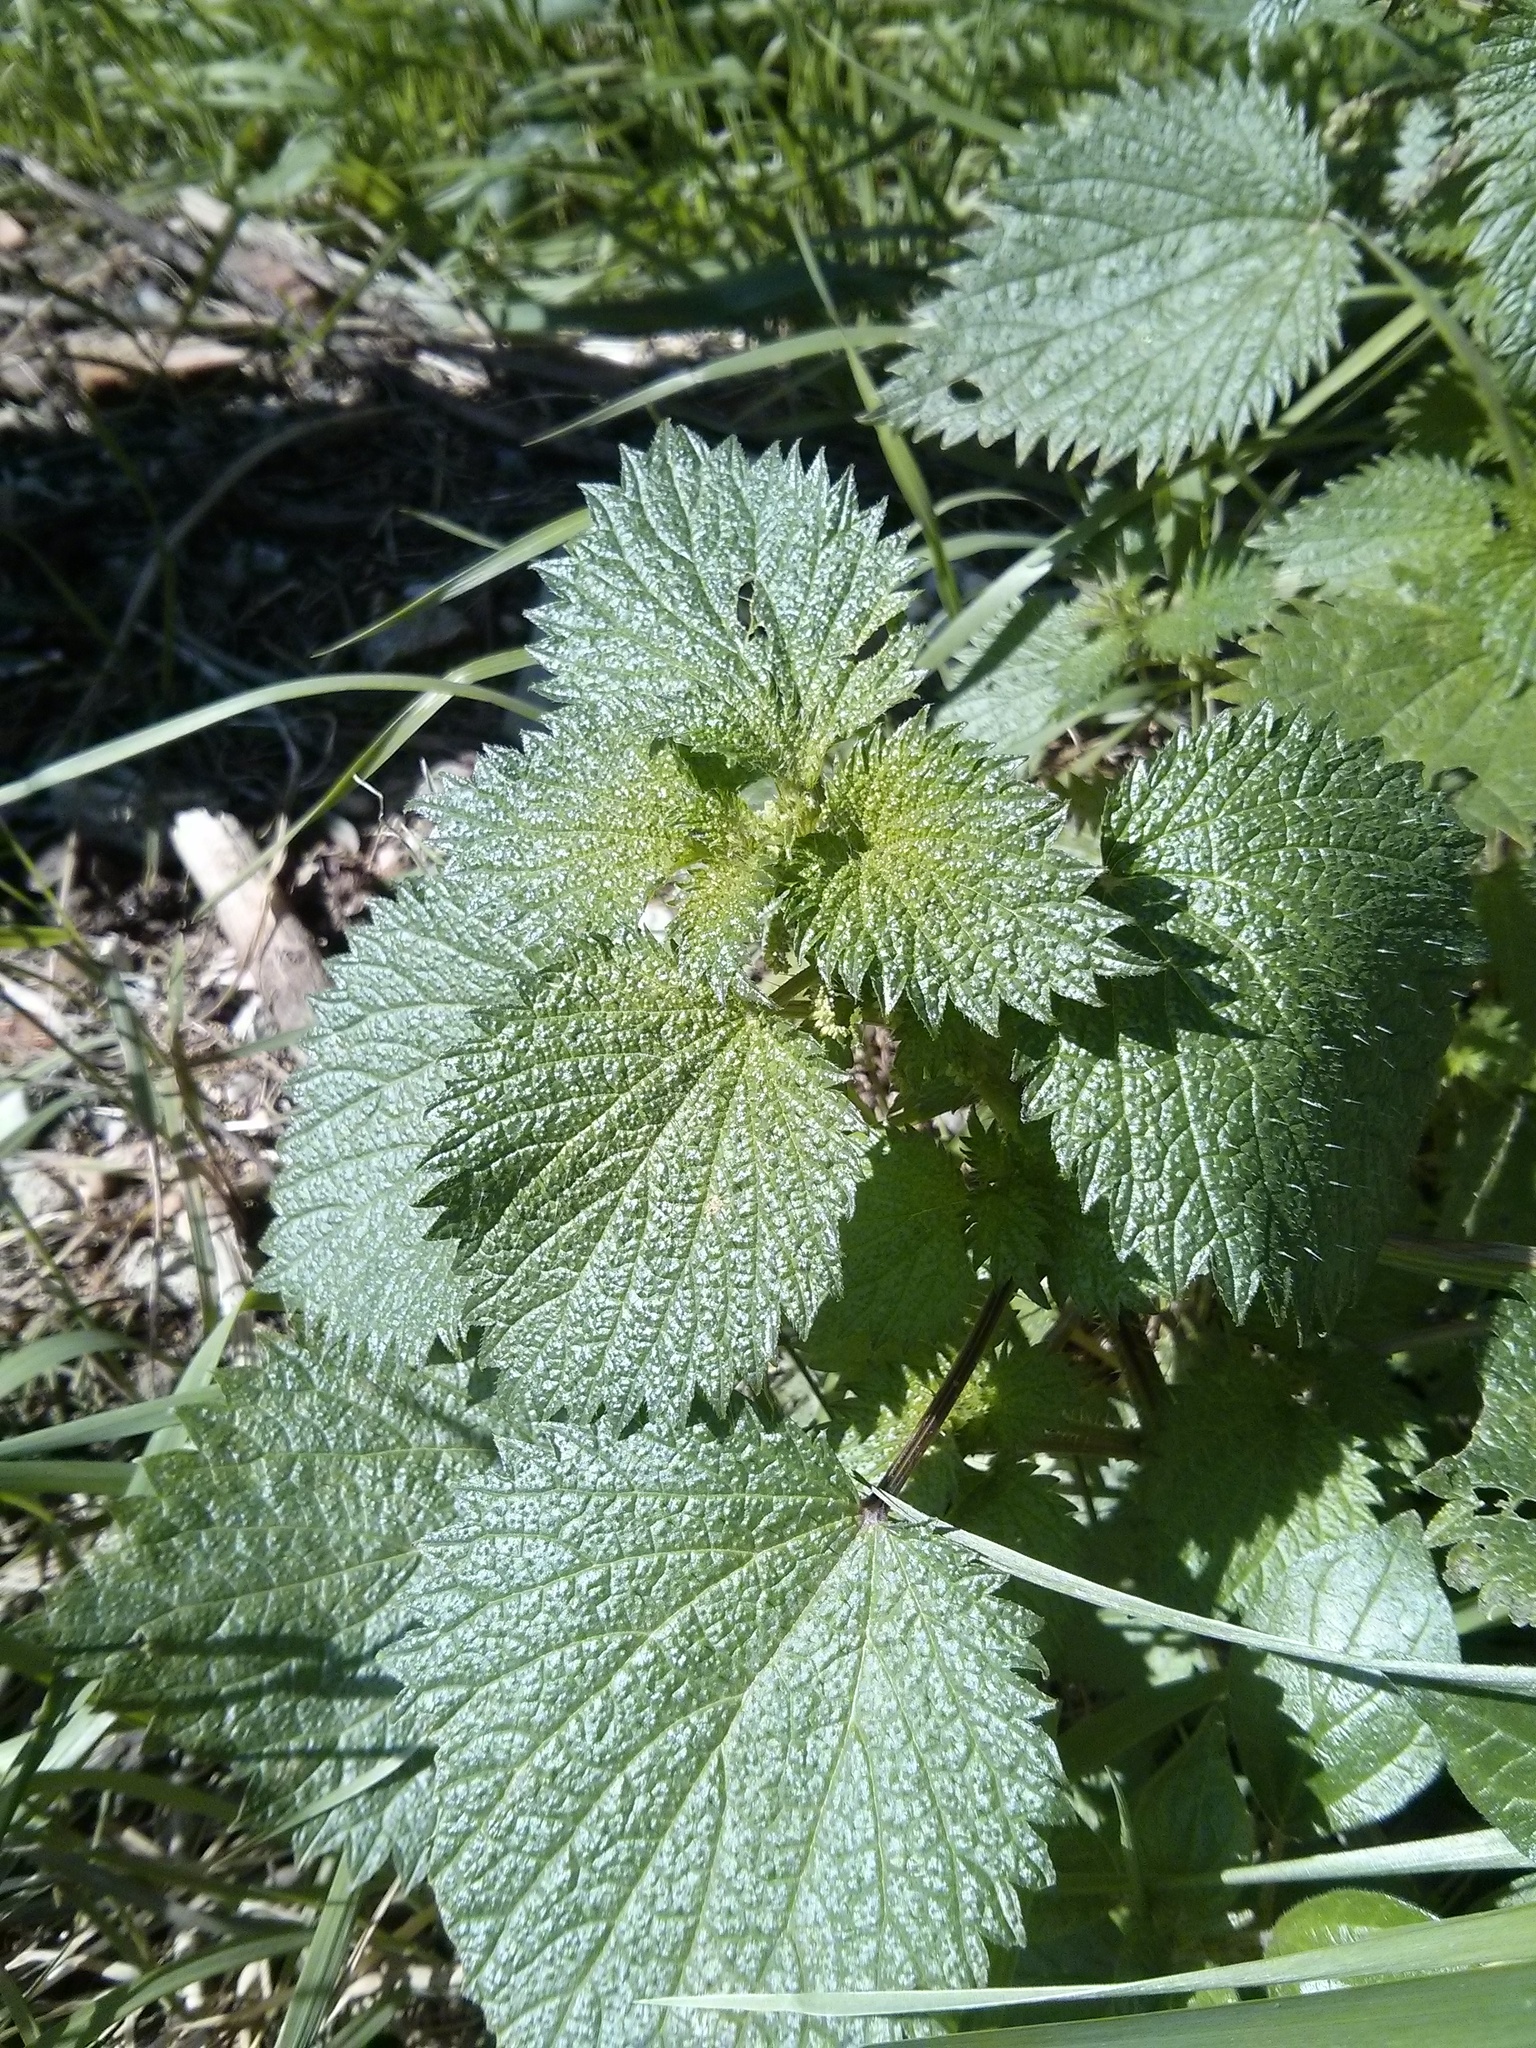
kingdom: Plantae
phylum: Tracheophyta
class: Magnoliopsida
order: Rosales
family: Urticaceae
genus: Urtica
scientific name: Urtica dioica
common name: Common nettle
